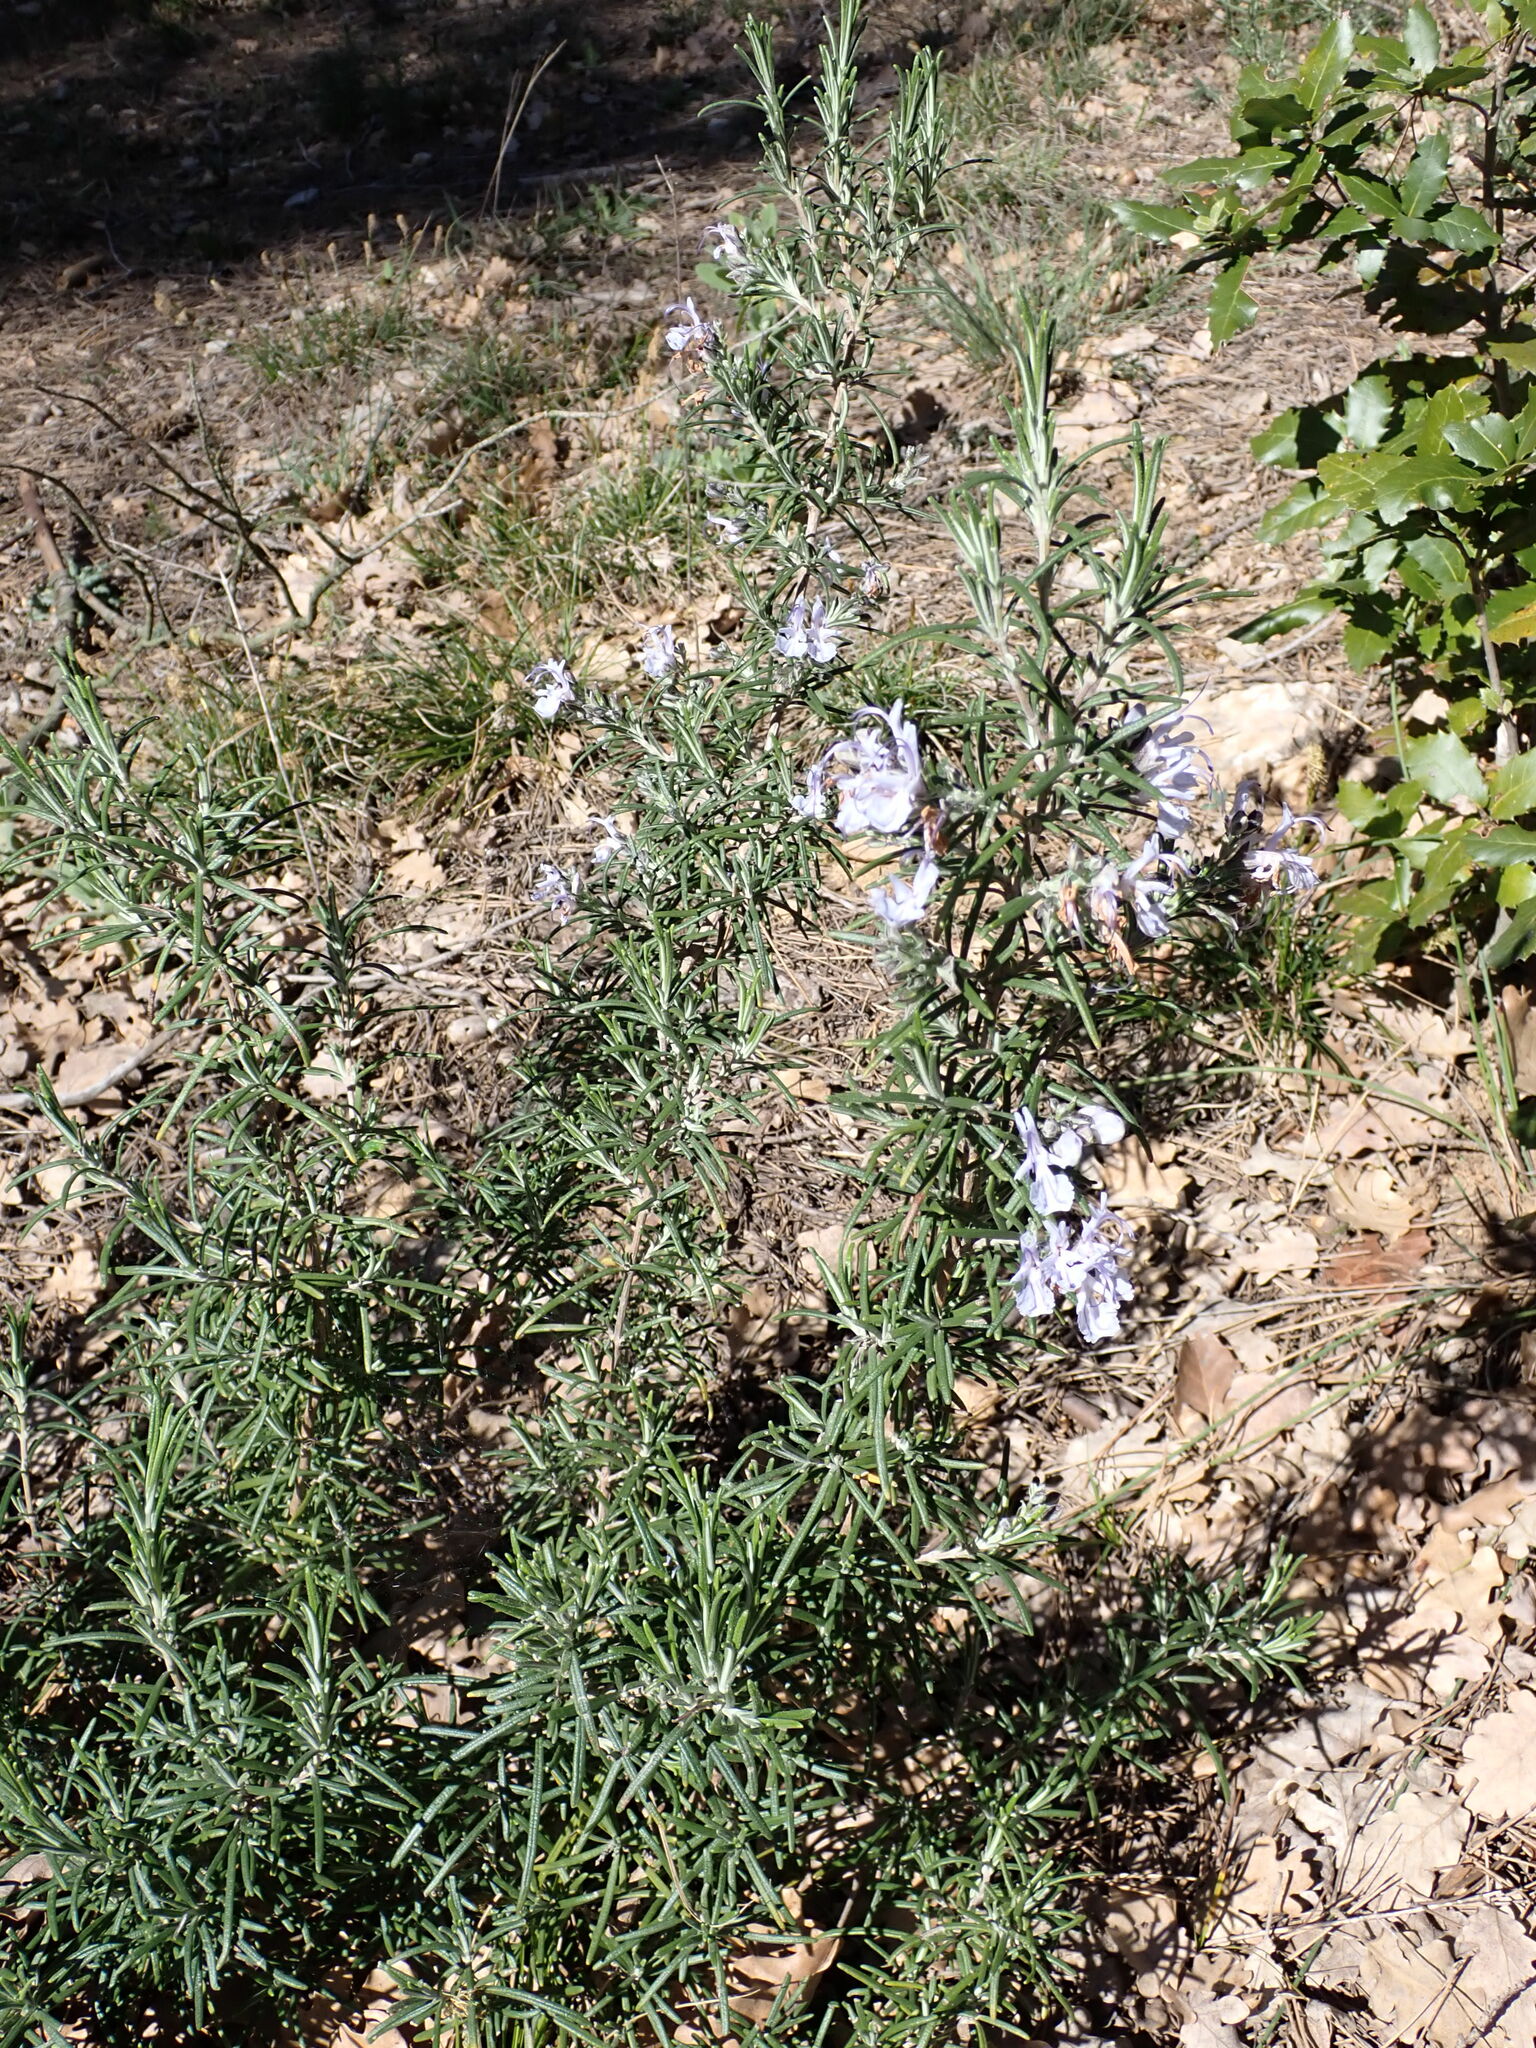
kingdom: Plantae
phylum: Tracheophyta
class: Magnoliopsida
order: Lamiales
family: Lamiaceae
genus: Salvia
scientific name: Salvia rosmarinus
